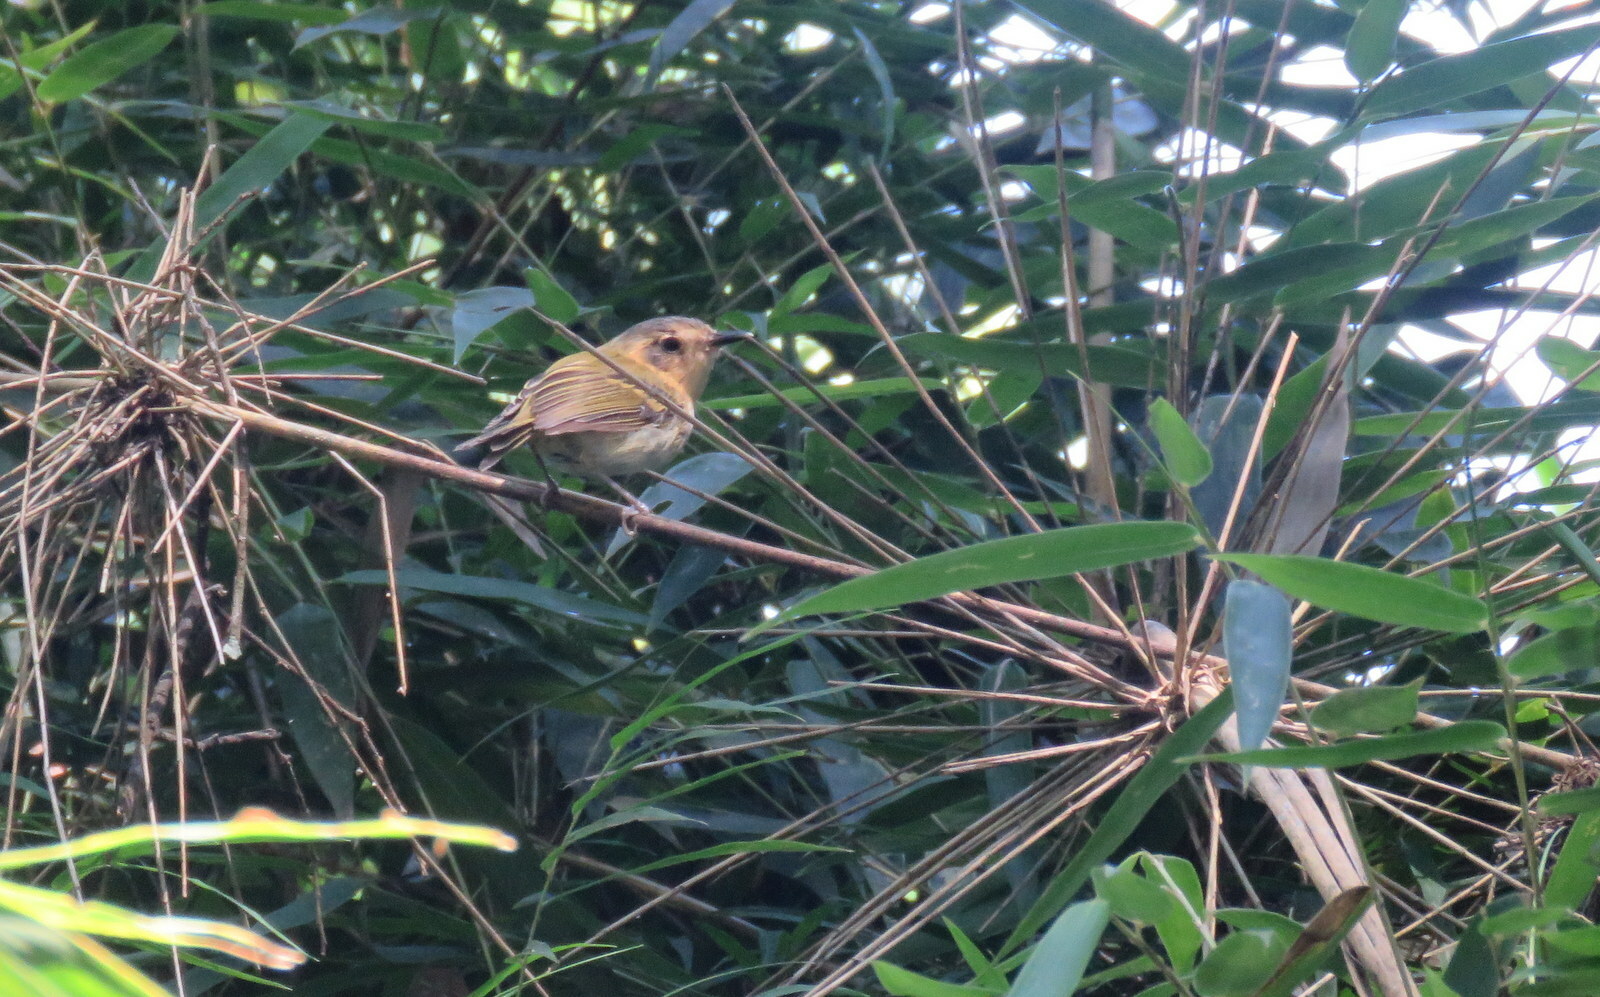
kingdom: Animalia
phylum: Chordata
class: Aves
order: Passeriformes
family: Tyrannidae
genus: Poecilotriccus
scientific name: Poecilotriccus plumbeiceps
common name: Ochre-faced tody-flycatcher
